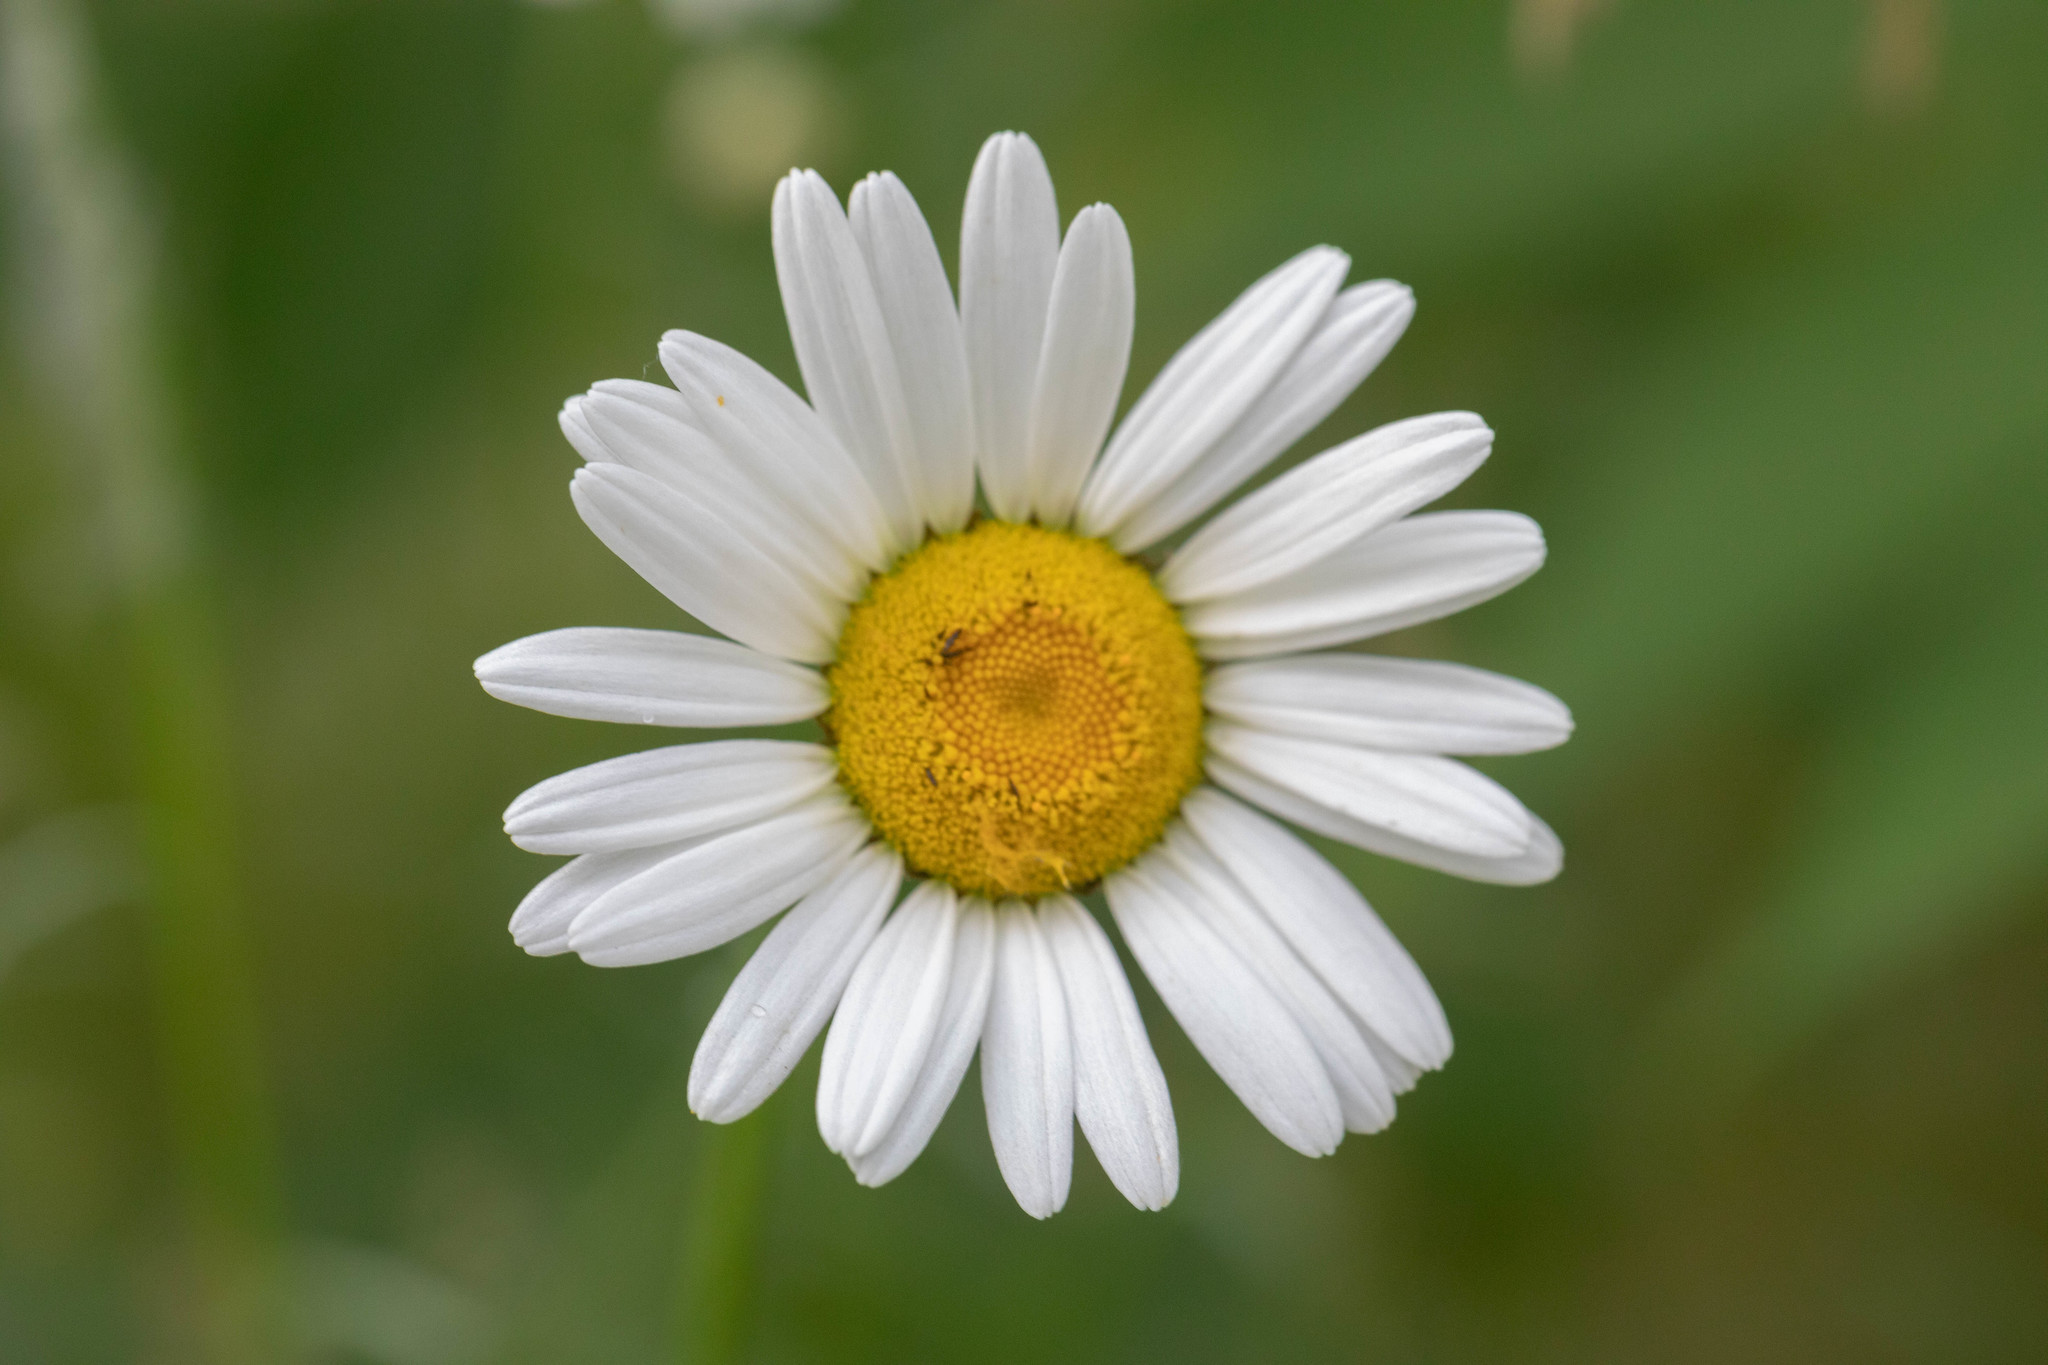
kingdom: Plantae
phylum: Tracheophyta
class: Magnoliopsida
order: Asterales
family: Asteraceae
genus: Leucanthemum
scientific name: Leucanthemum vulgare
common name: Oxeye daisy
